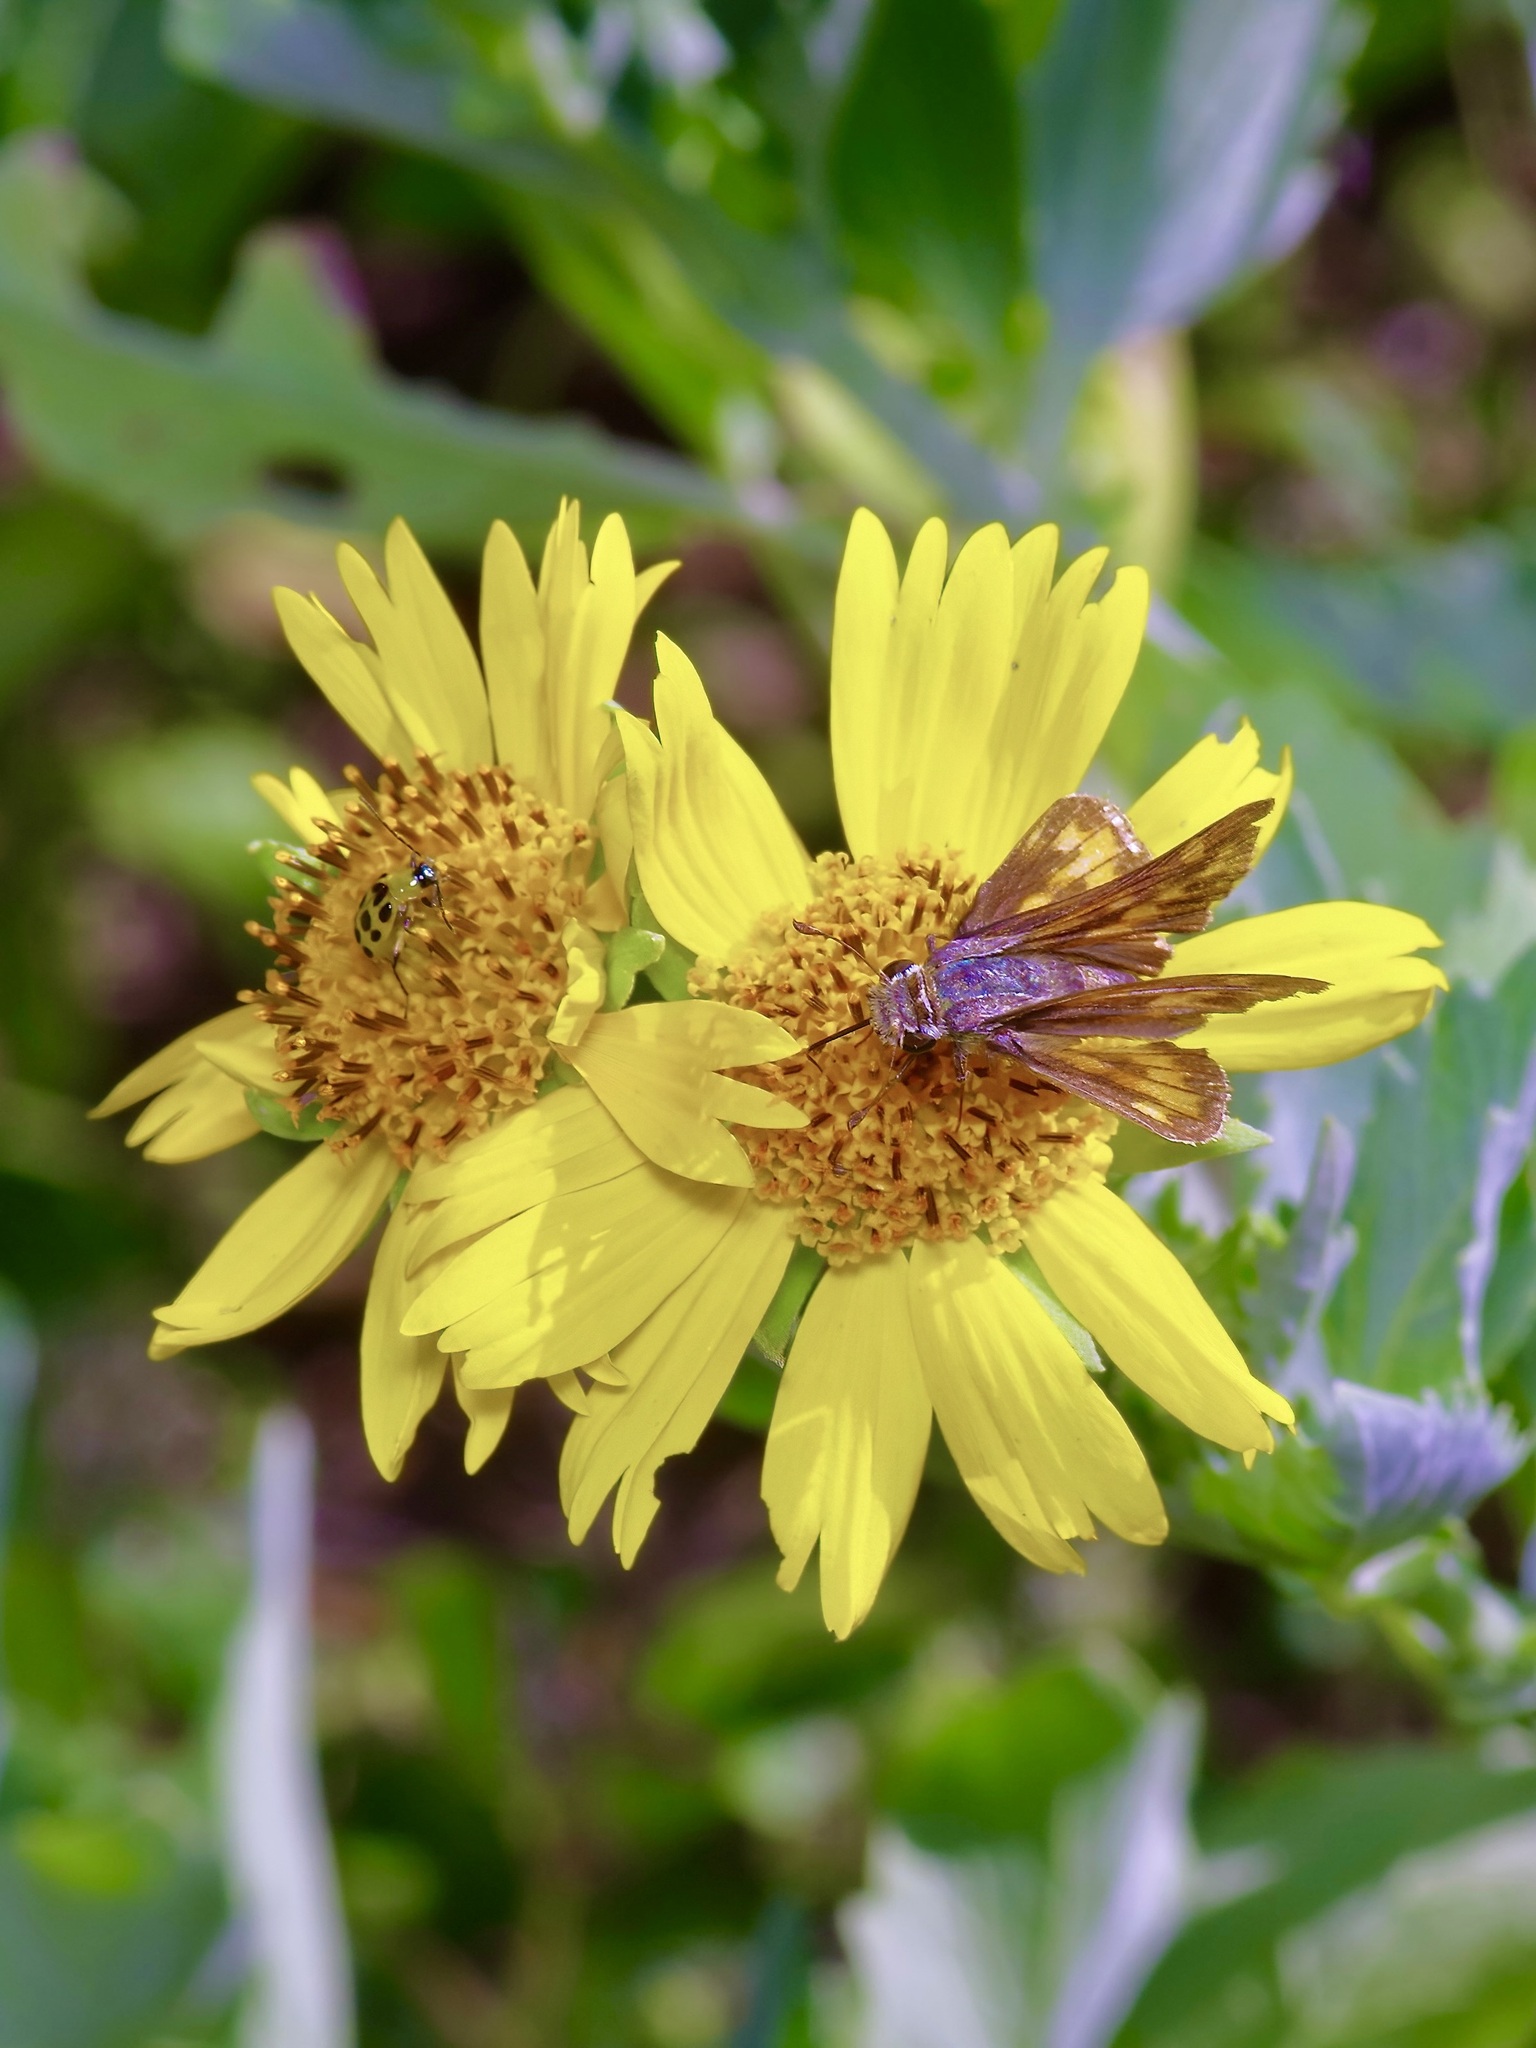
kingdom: Animalia
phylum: Arthropoda
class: Insecta
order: Lepidoptera
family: Hesperiidae
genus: Hylephila
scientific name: Hylephila phyleus
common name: Fiery skipper
